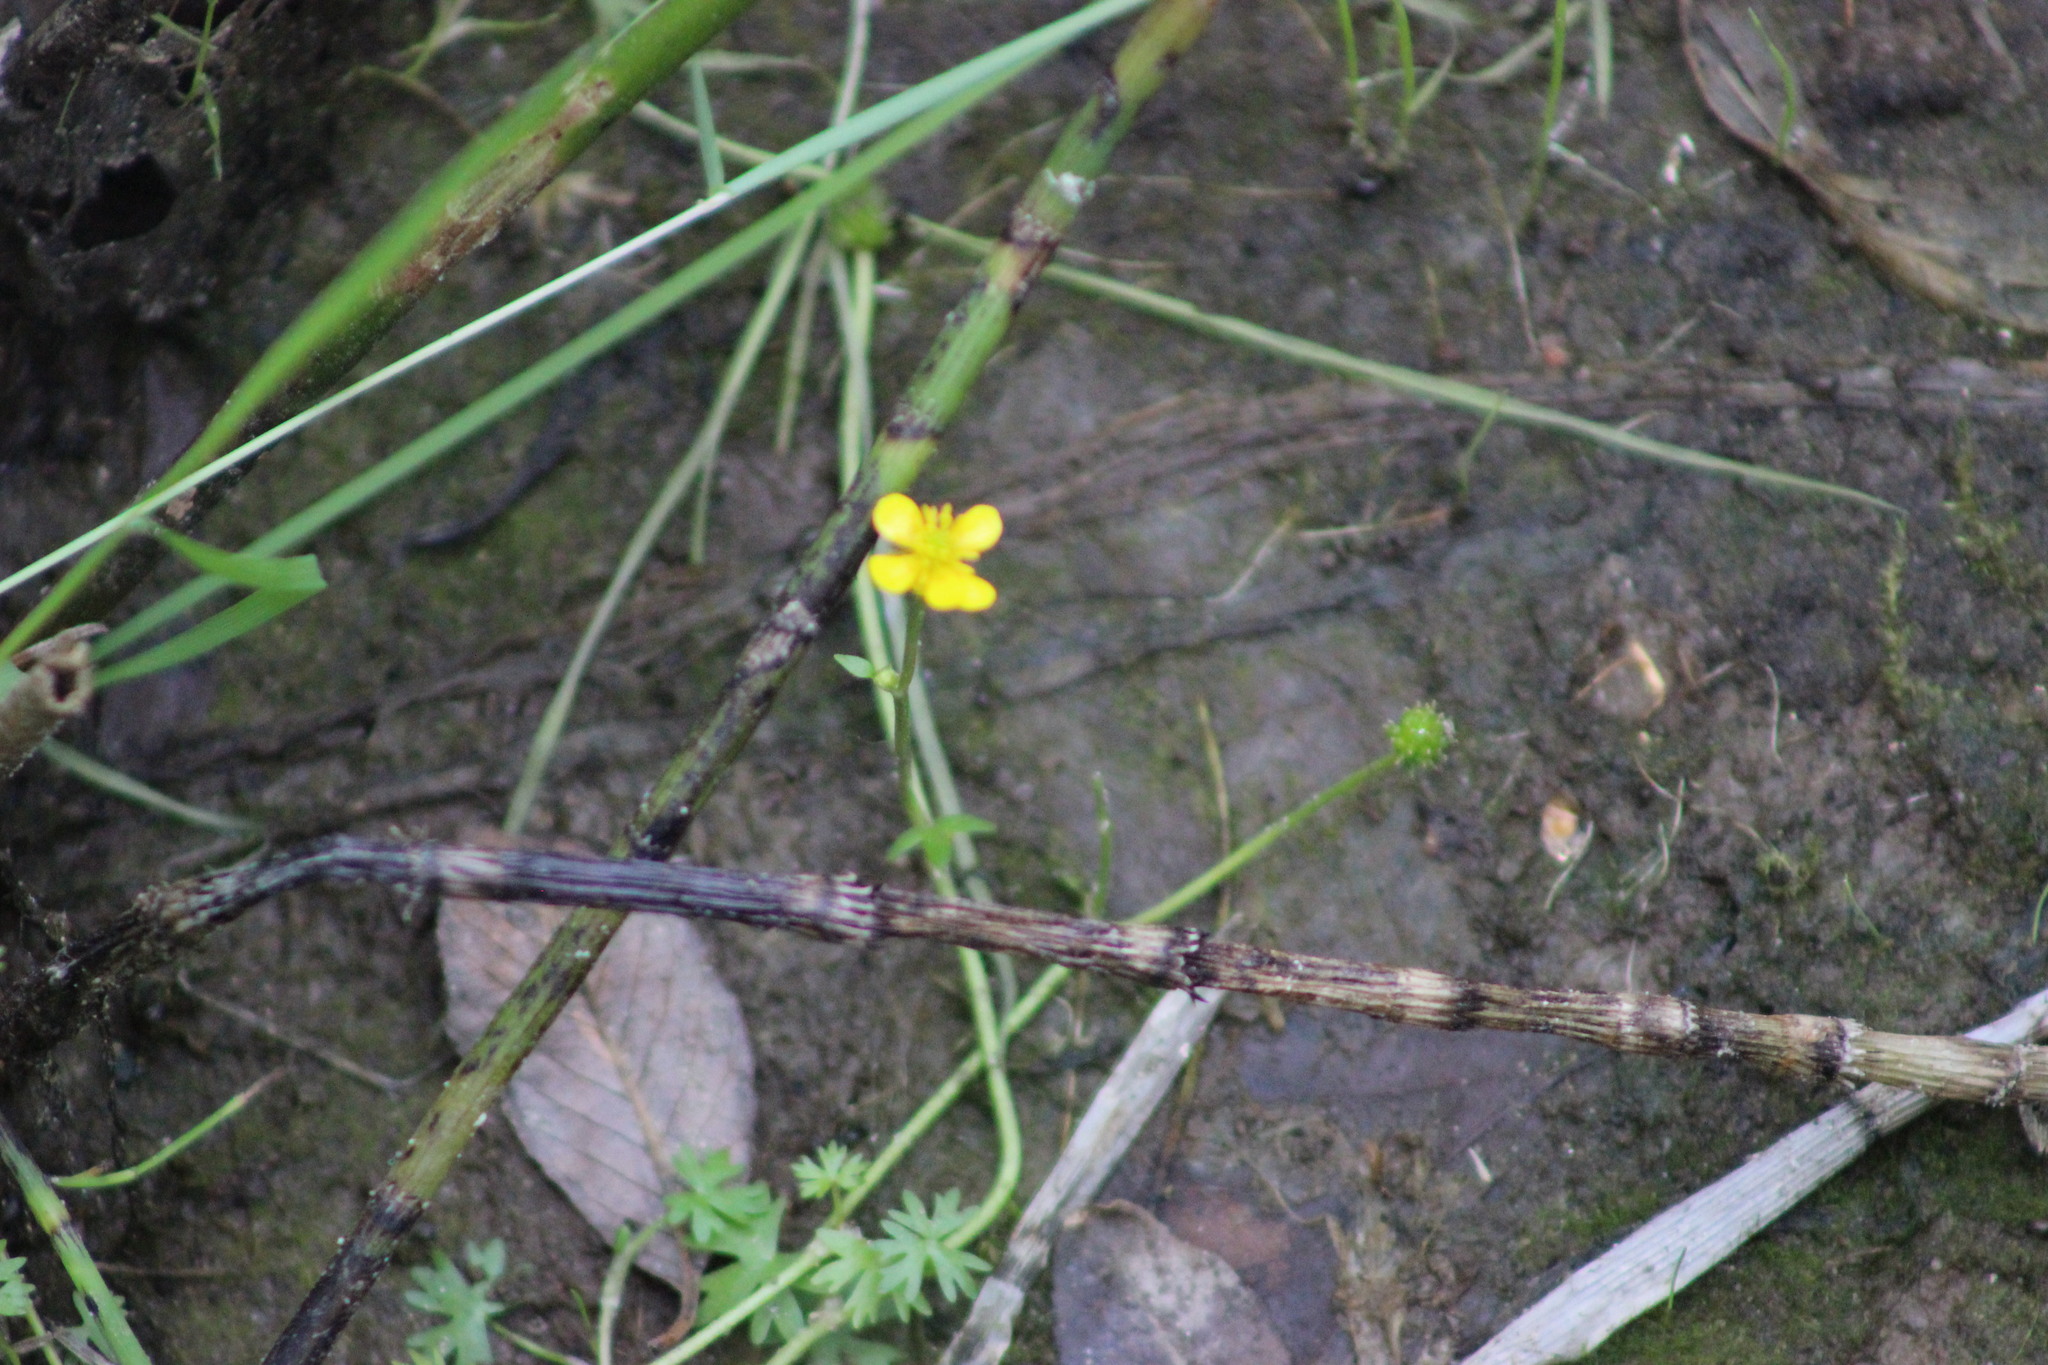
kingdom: Plantae
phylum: Tracheophyta
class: Magnoliopsida
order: Ranunculales
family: Ranunculaceae
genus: Ranunculus
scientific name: Ranunculus gmelinii
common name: Gmelin's buttercup
